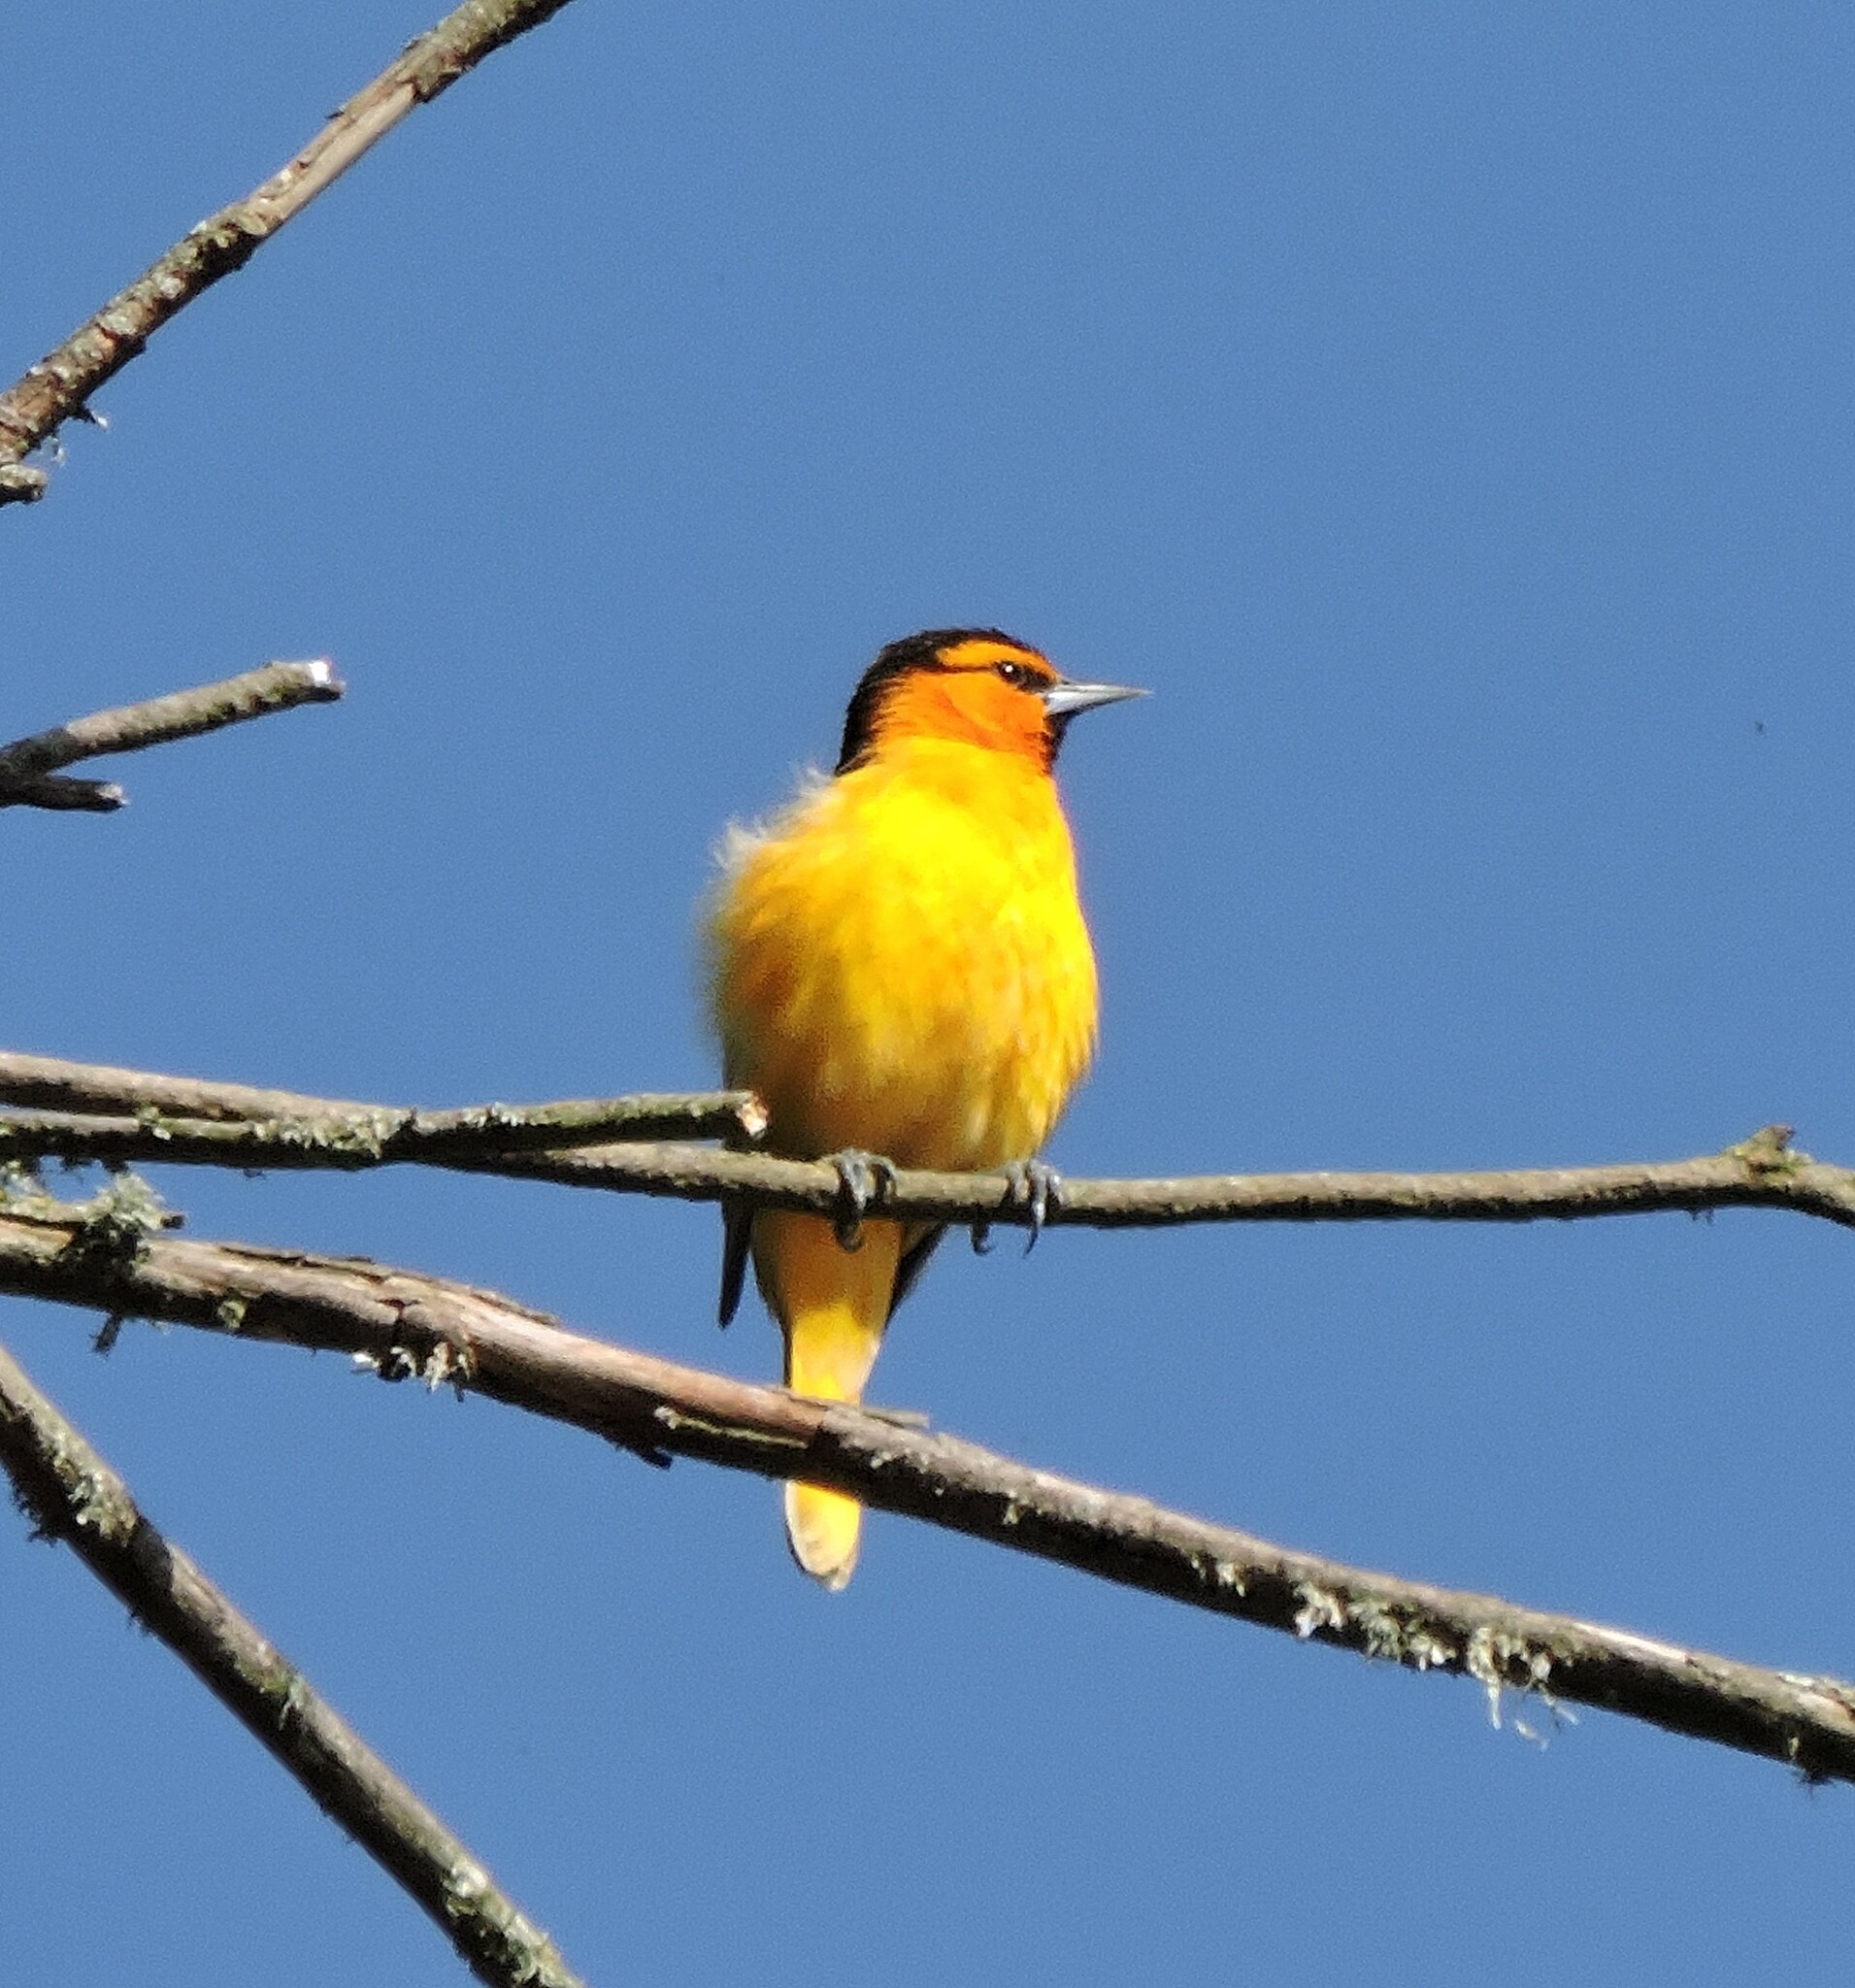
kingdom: Animalia
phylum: Chordata
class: Aves
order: Passeriformes
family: Icteridae
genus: Icterus
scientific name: Icterus bullockii
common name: Bullock's oriole
